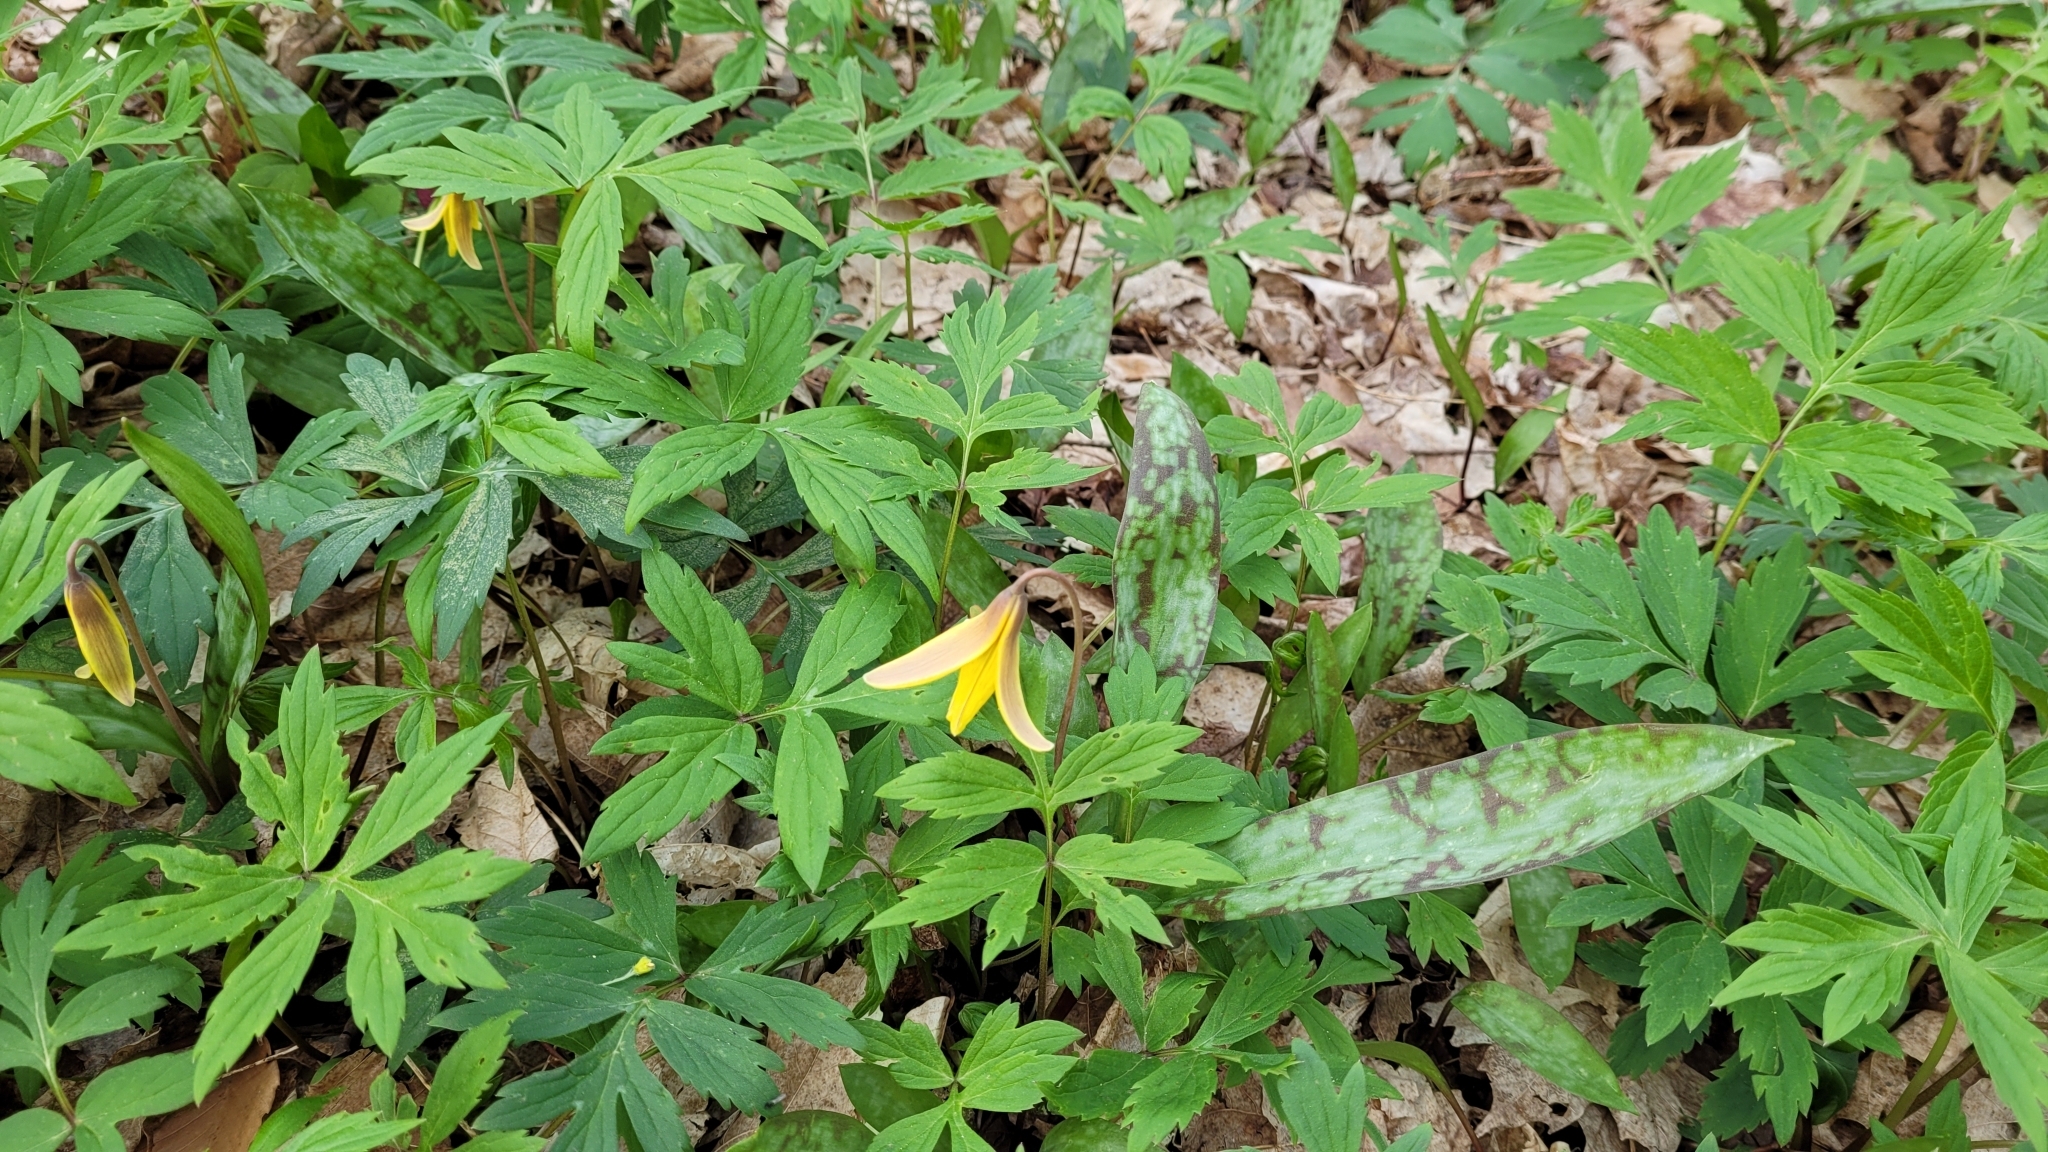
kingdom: Plantae
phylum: Tracheophyta
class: Liliopsida
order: Liliales
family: Liliaceae
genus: Erythronium
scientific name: Erythronium americanum
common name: Yellow adder's-tongue
